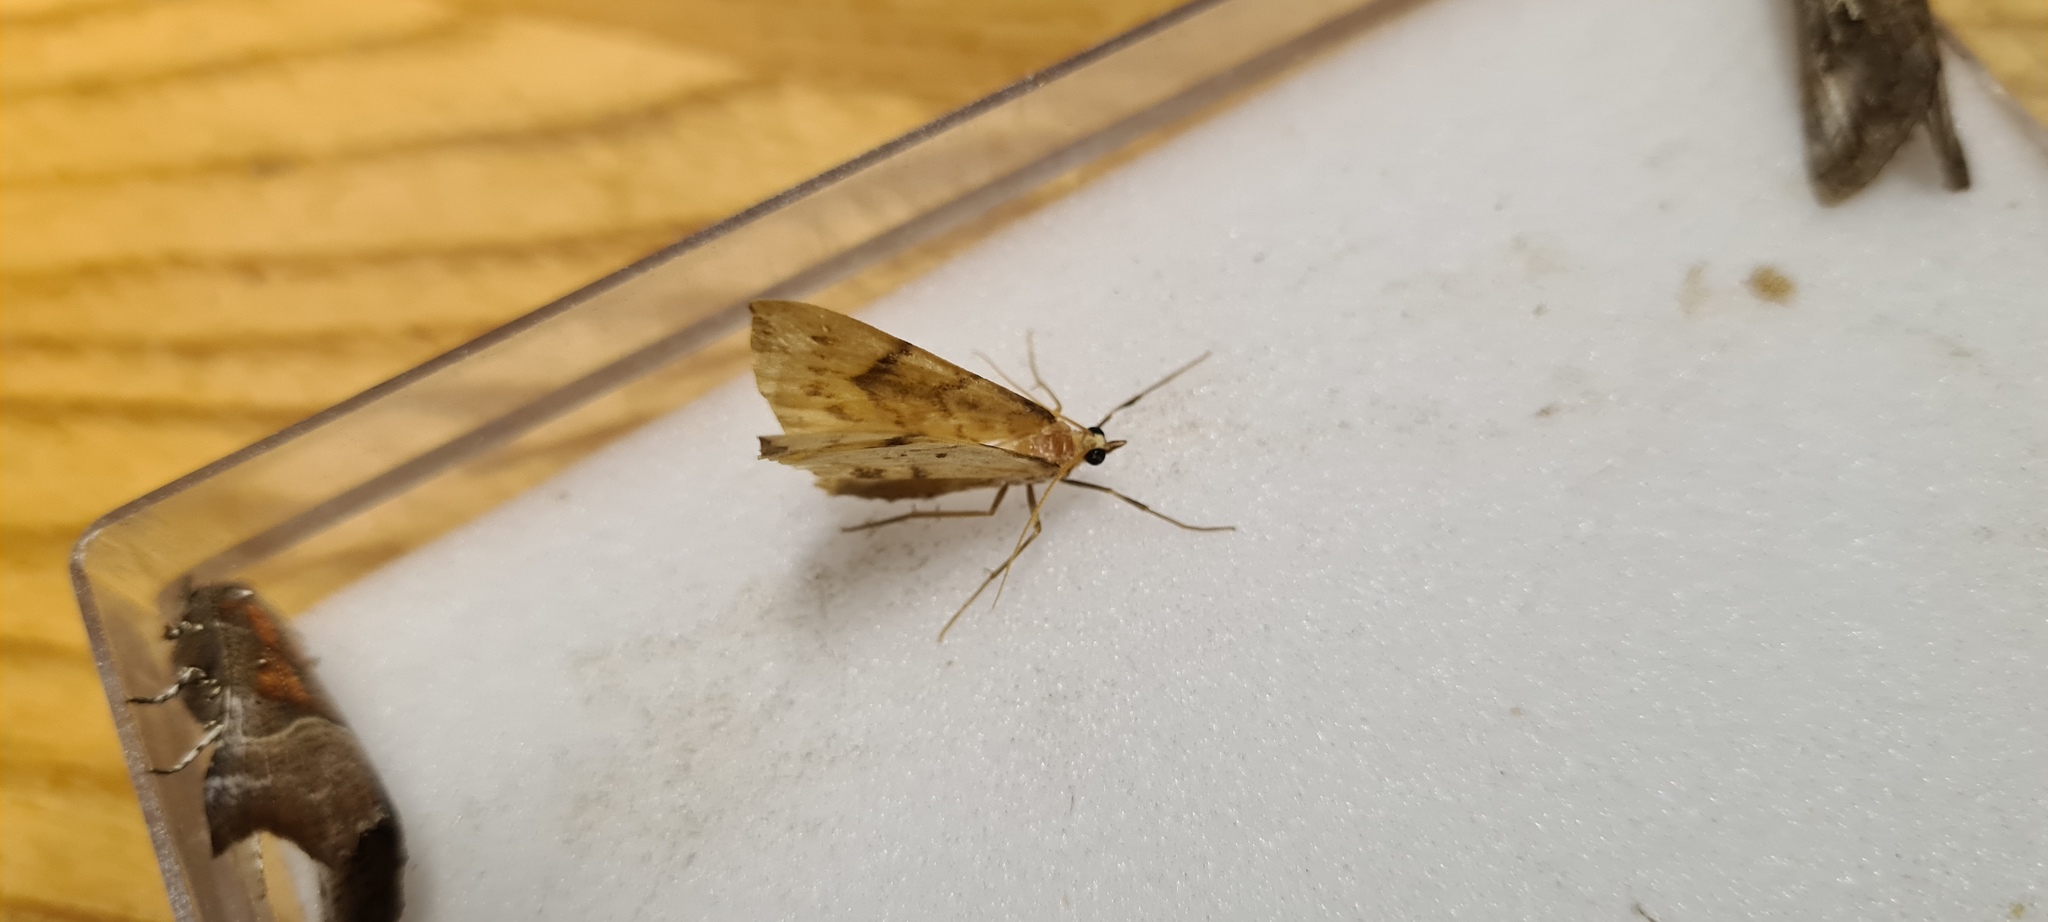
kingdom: Animalia
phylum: Arthropoda
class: Insecta
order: Lepidoptera
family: Geometridae
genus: Eulithis
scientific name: Eulithis pyraliata
